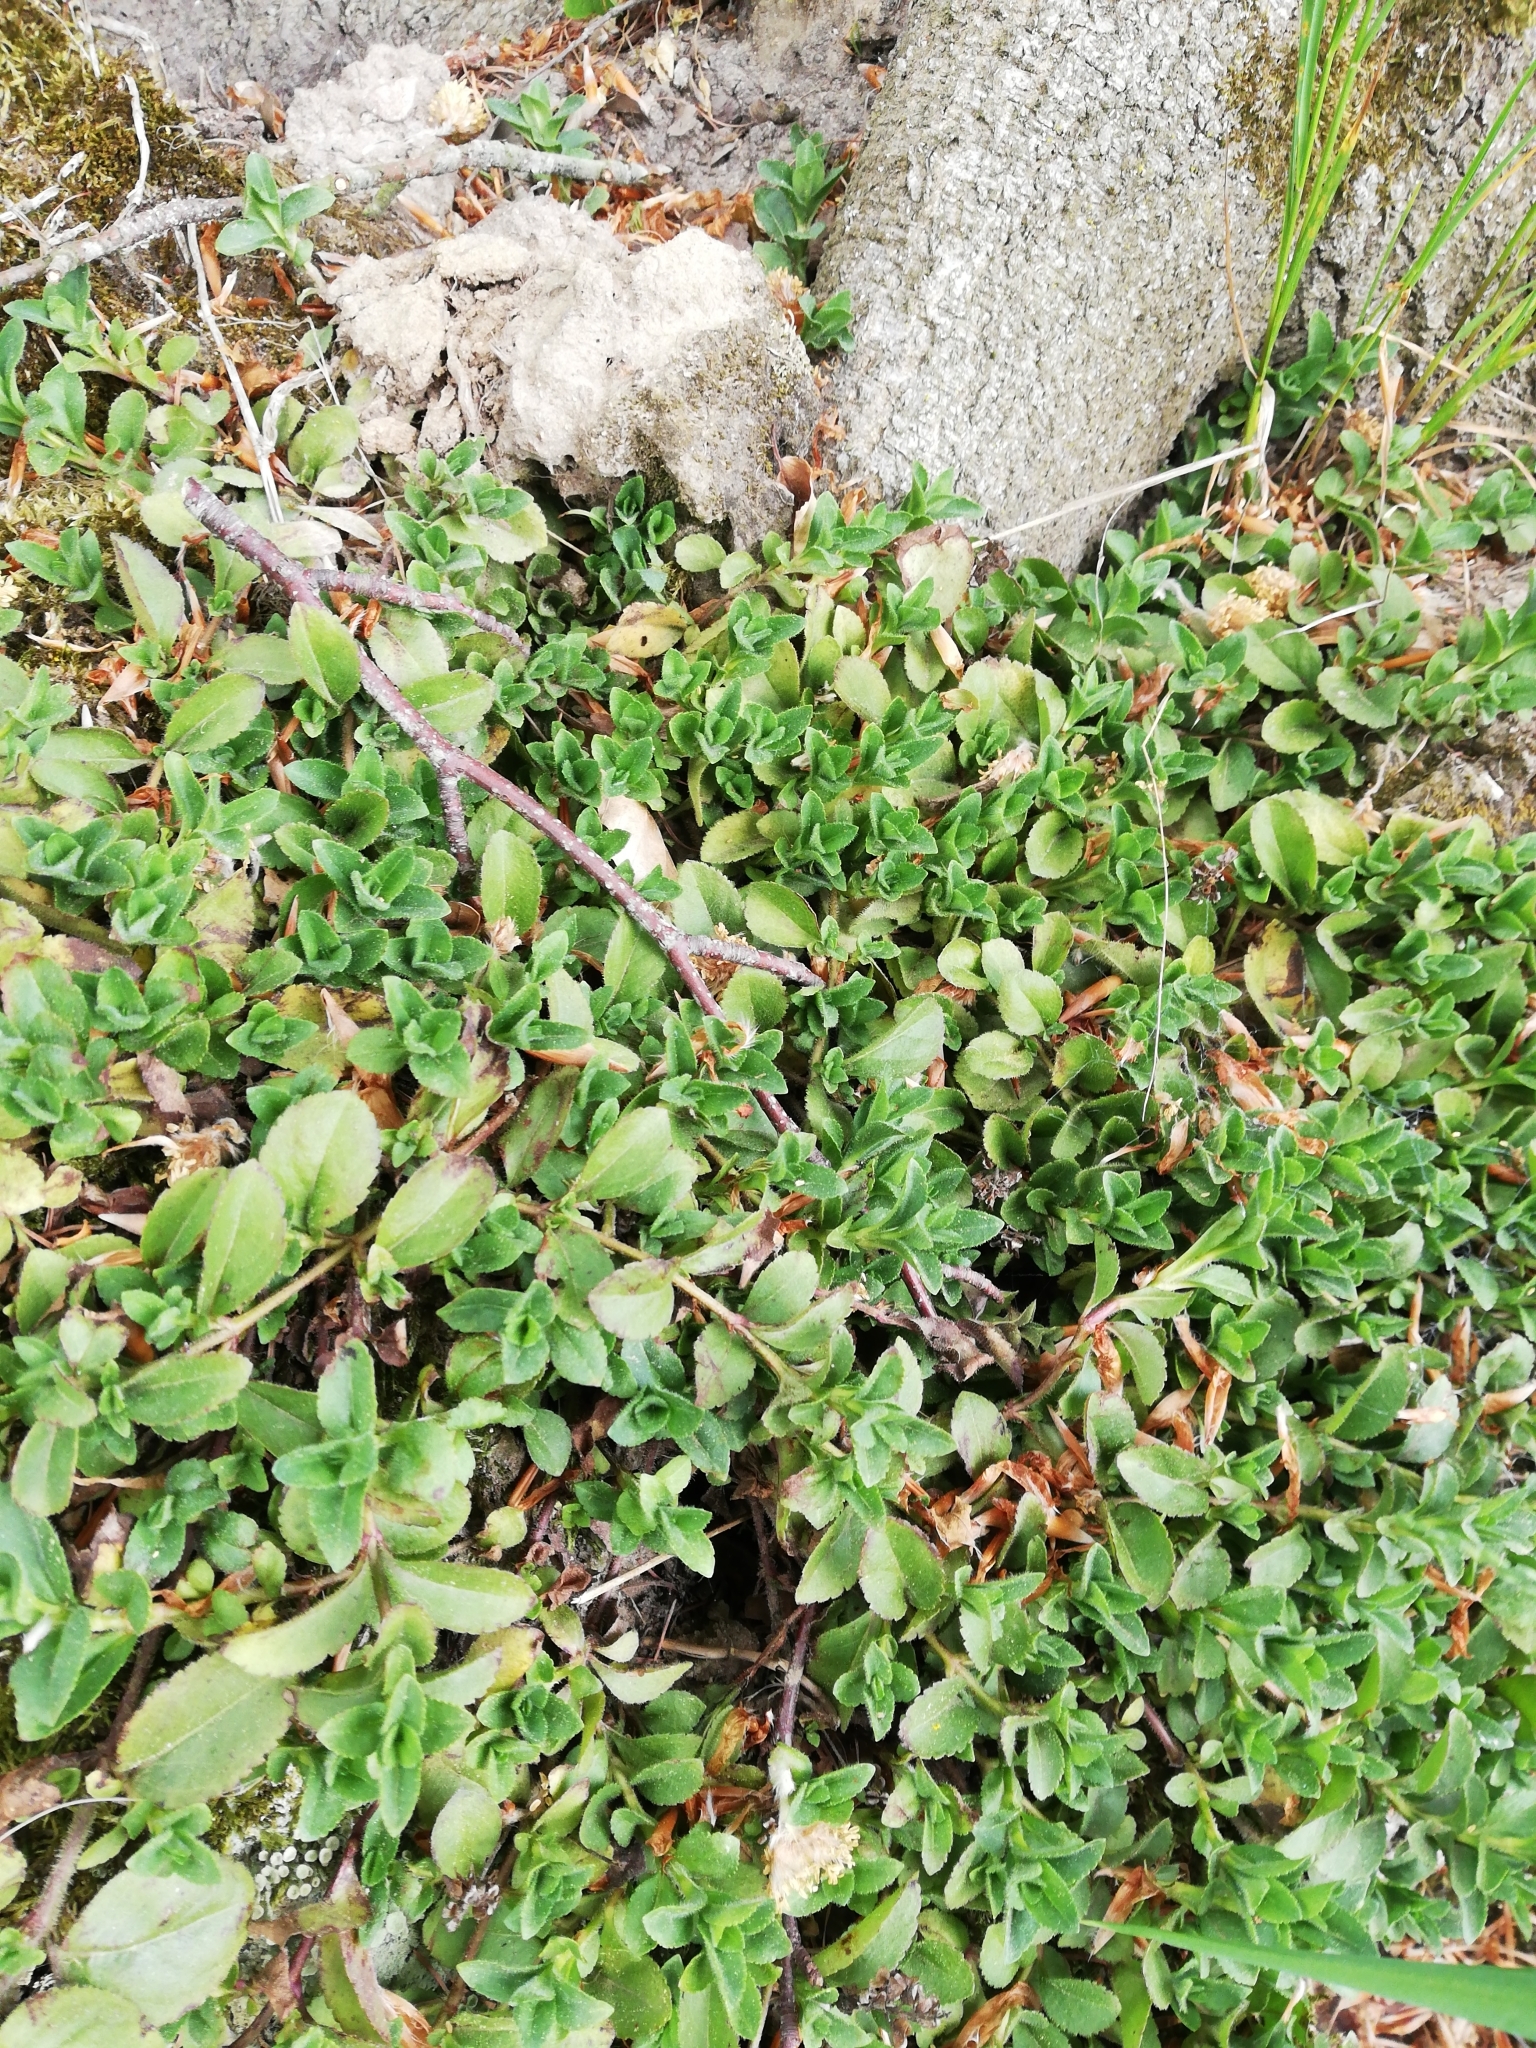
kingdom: Plantae
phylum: Tracheophyta
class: Magnoliopsida
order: Lamiales
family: Plantaginaceae
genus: Veronica
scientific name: Veronica officinalis
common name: Common speedwell
